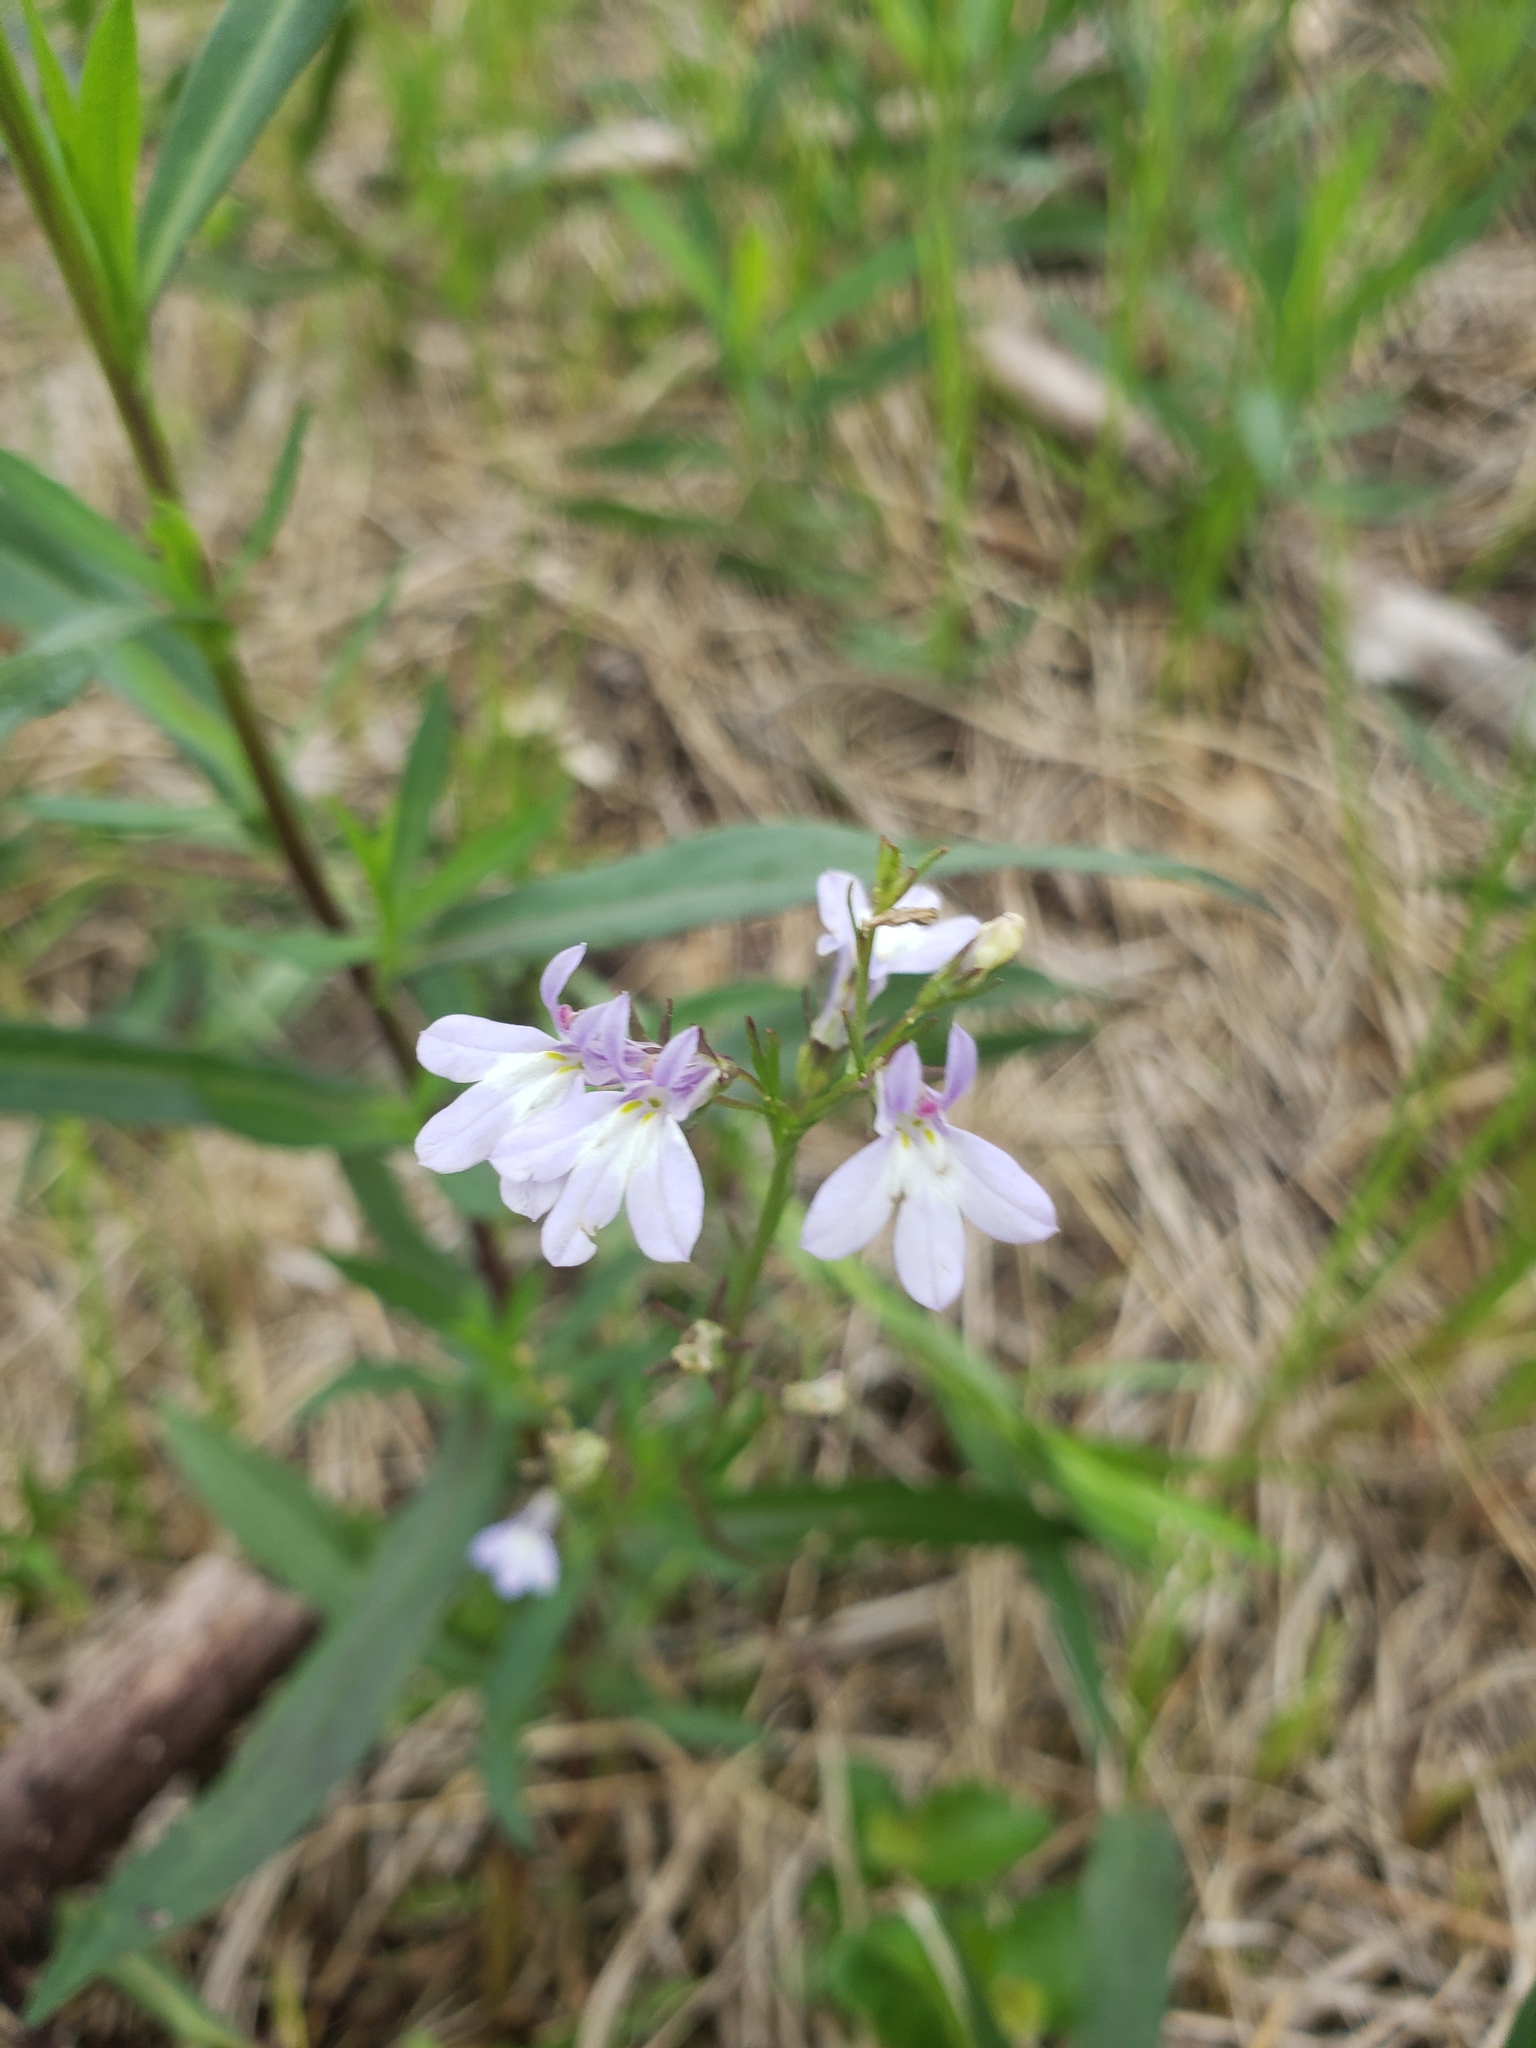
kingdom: Plantae
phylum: Tracheophyta
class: Magnoliopsida
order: Asterales
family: Campanulaceae
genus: Lobelia
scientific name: Lobelia kalmii
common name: Kalm's lobelia
